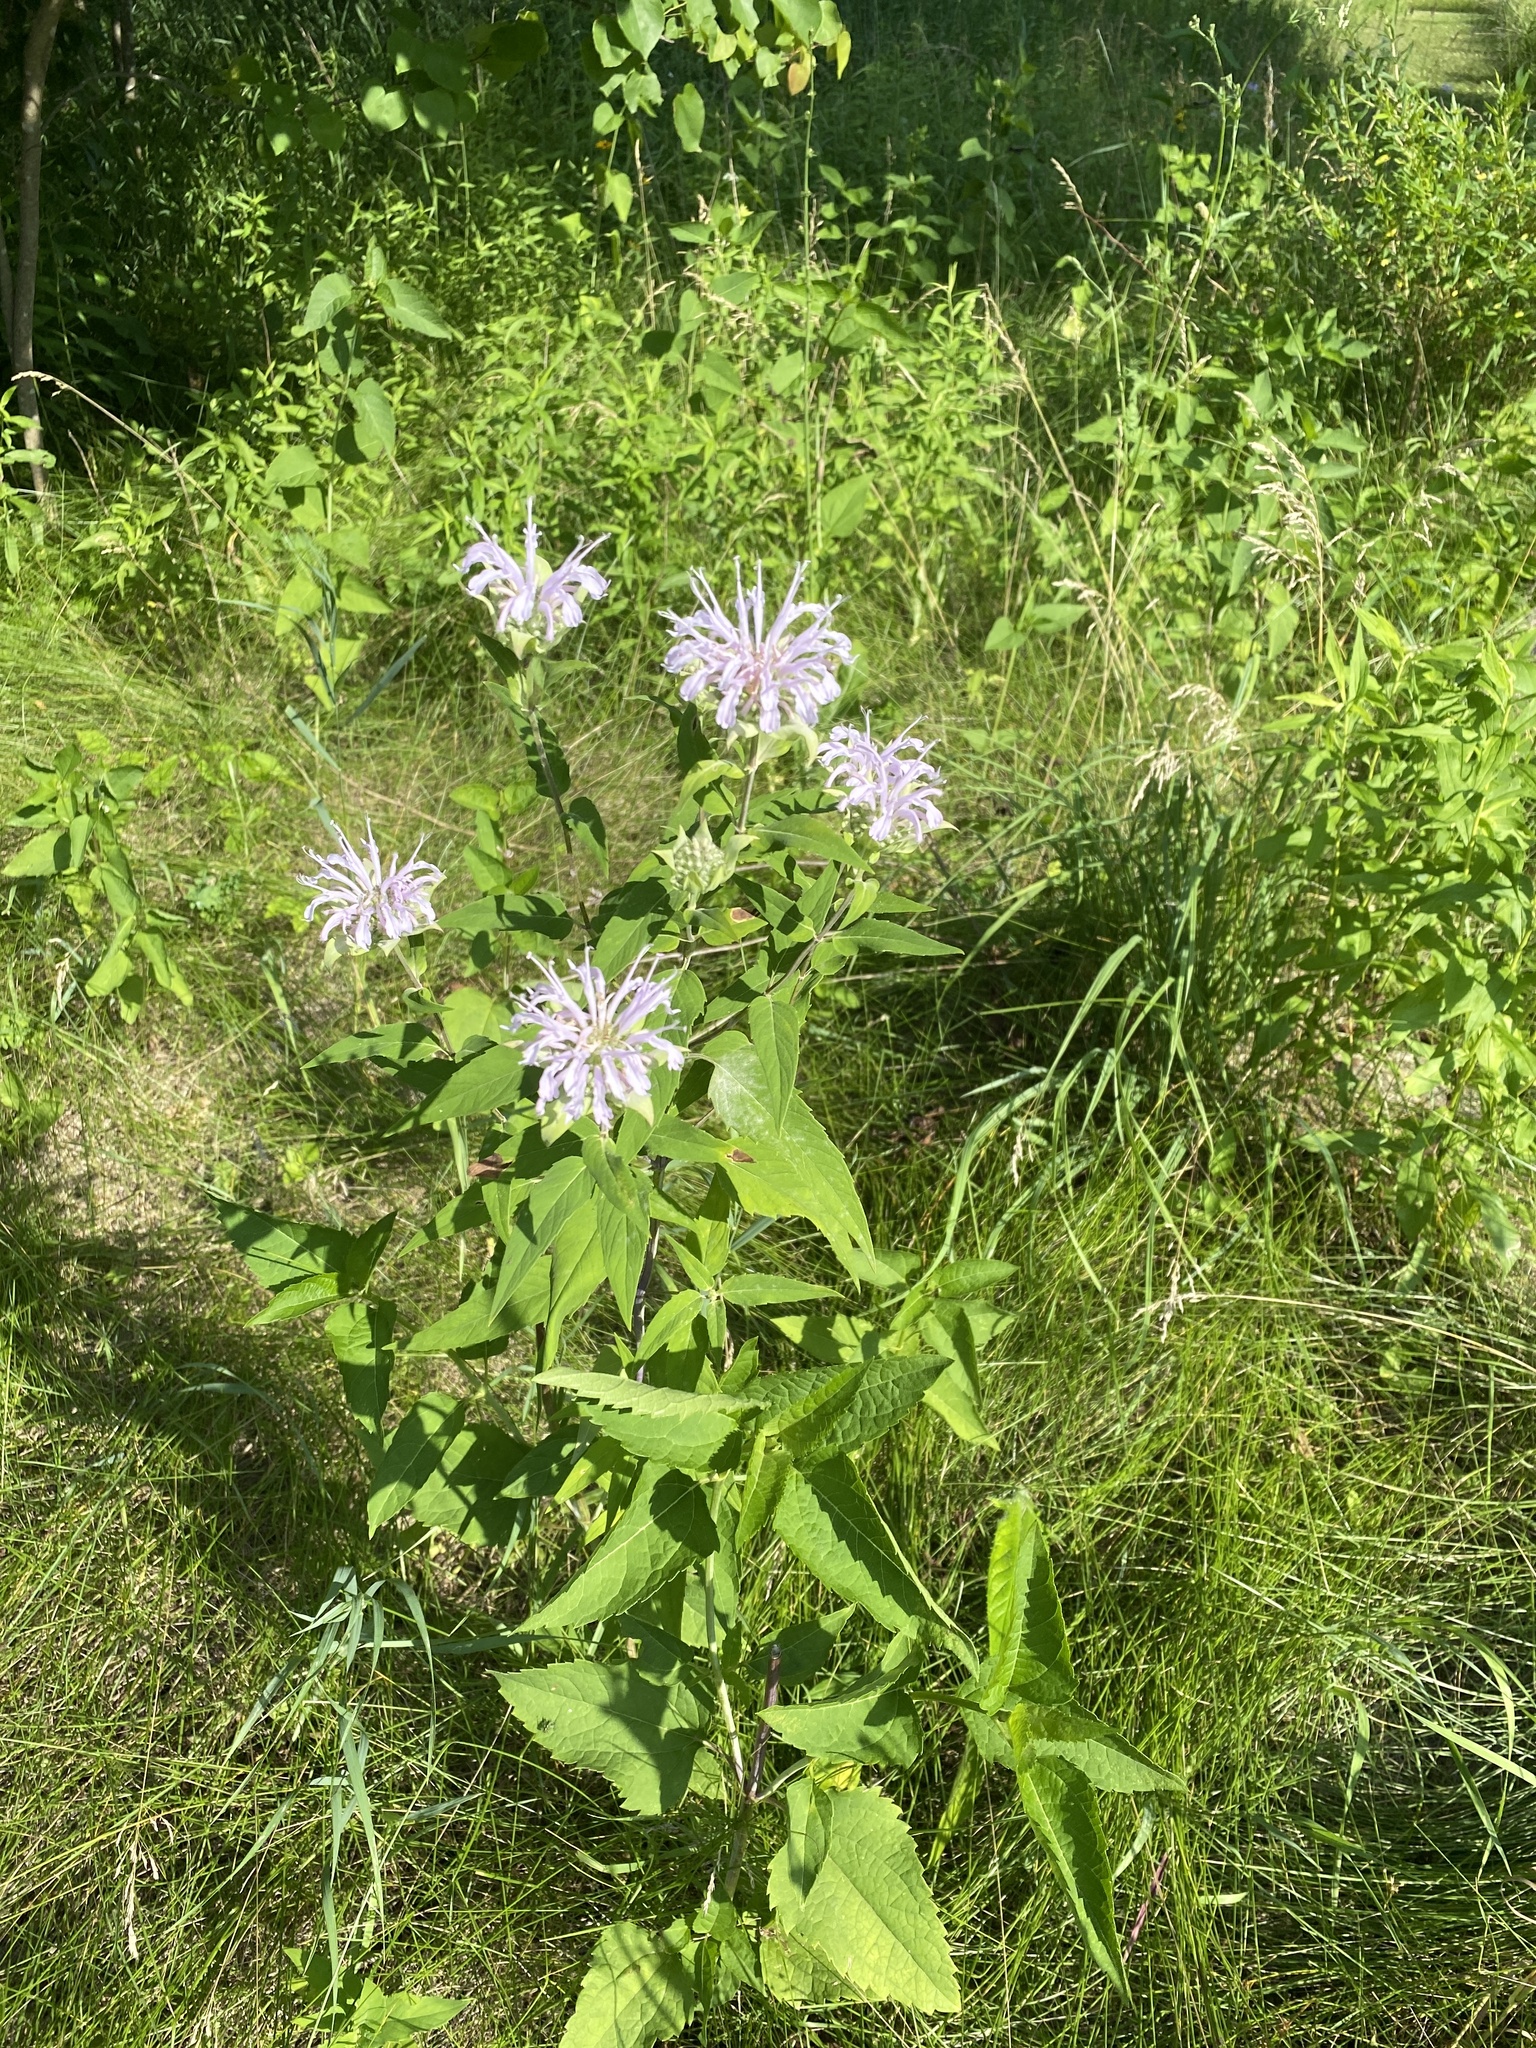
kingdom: Plantae
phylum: Tracheophyta
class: Magnoliopsida
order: Lamiales
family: Lamiaceae
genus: Monarda
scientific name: Monarda fistulosa
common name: Purple beebalm
